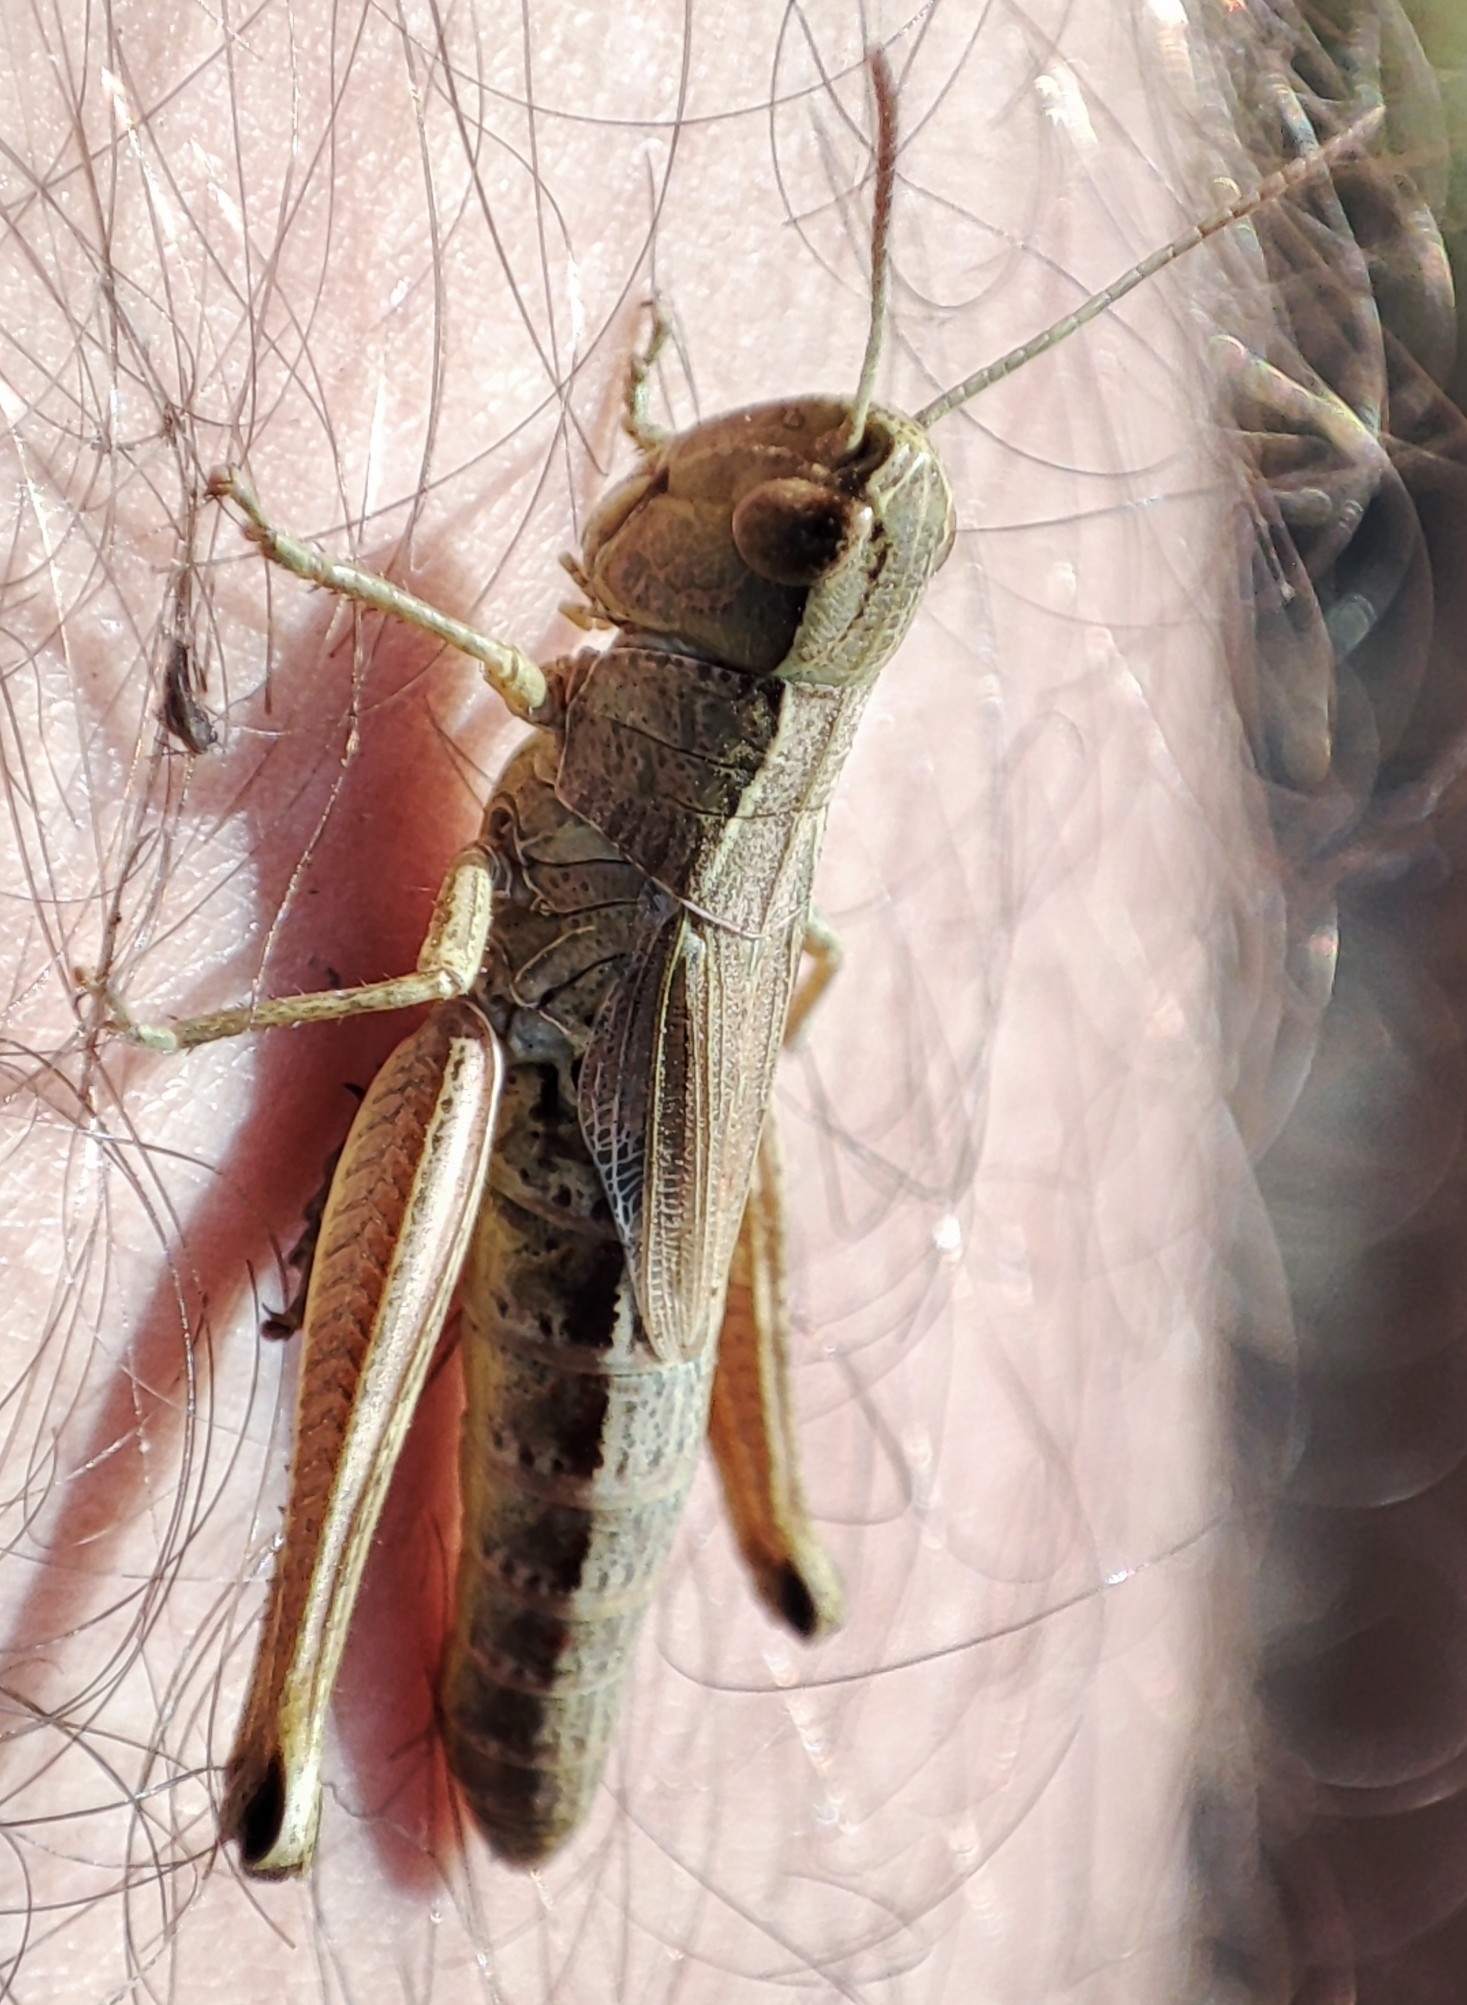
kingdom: Animalia
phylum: Arthropoda
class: Insecta
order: Orthoptera
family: Acrididae
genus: Pseudochorthippus
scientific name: Pseudochorthippus parallelus
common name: Meadow grasshopper
